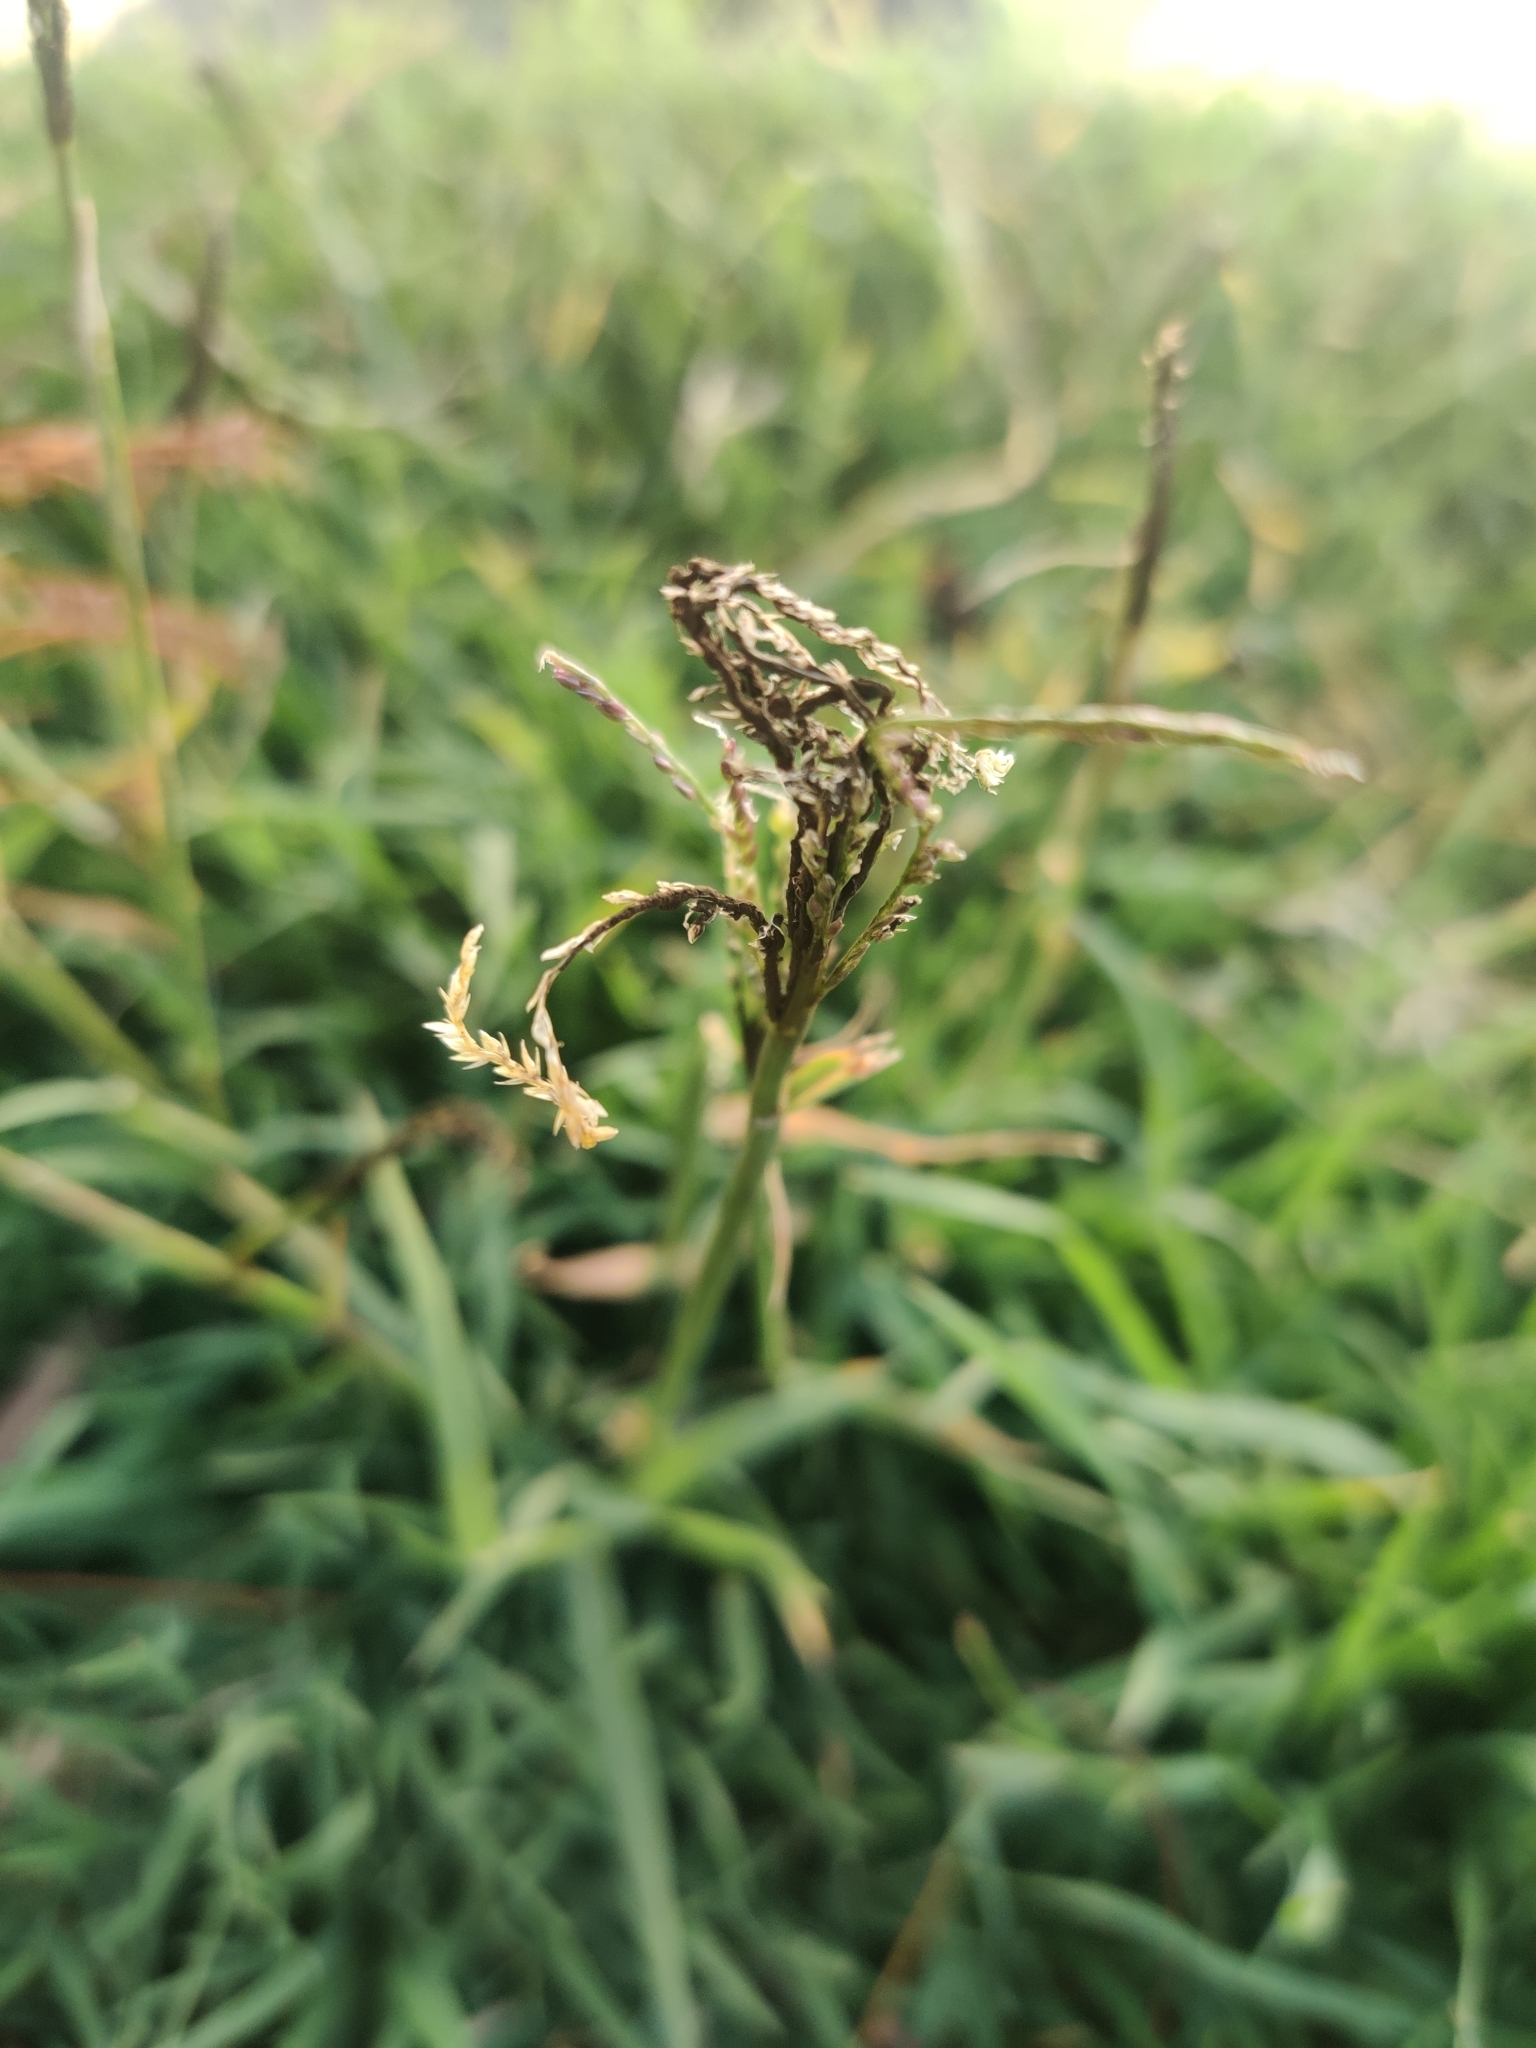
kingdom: Fungi
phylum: Basidiomycota
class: Ustilaginomycetes
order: Ustilaginales
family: Ustilaginaceae
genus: Ustilago
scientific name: Ustilago cynodontis
